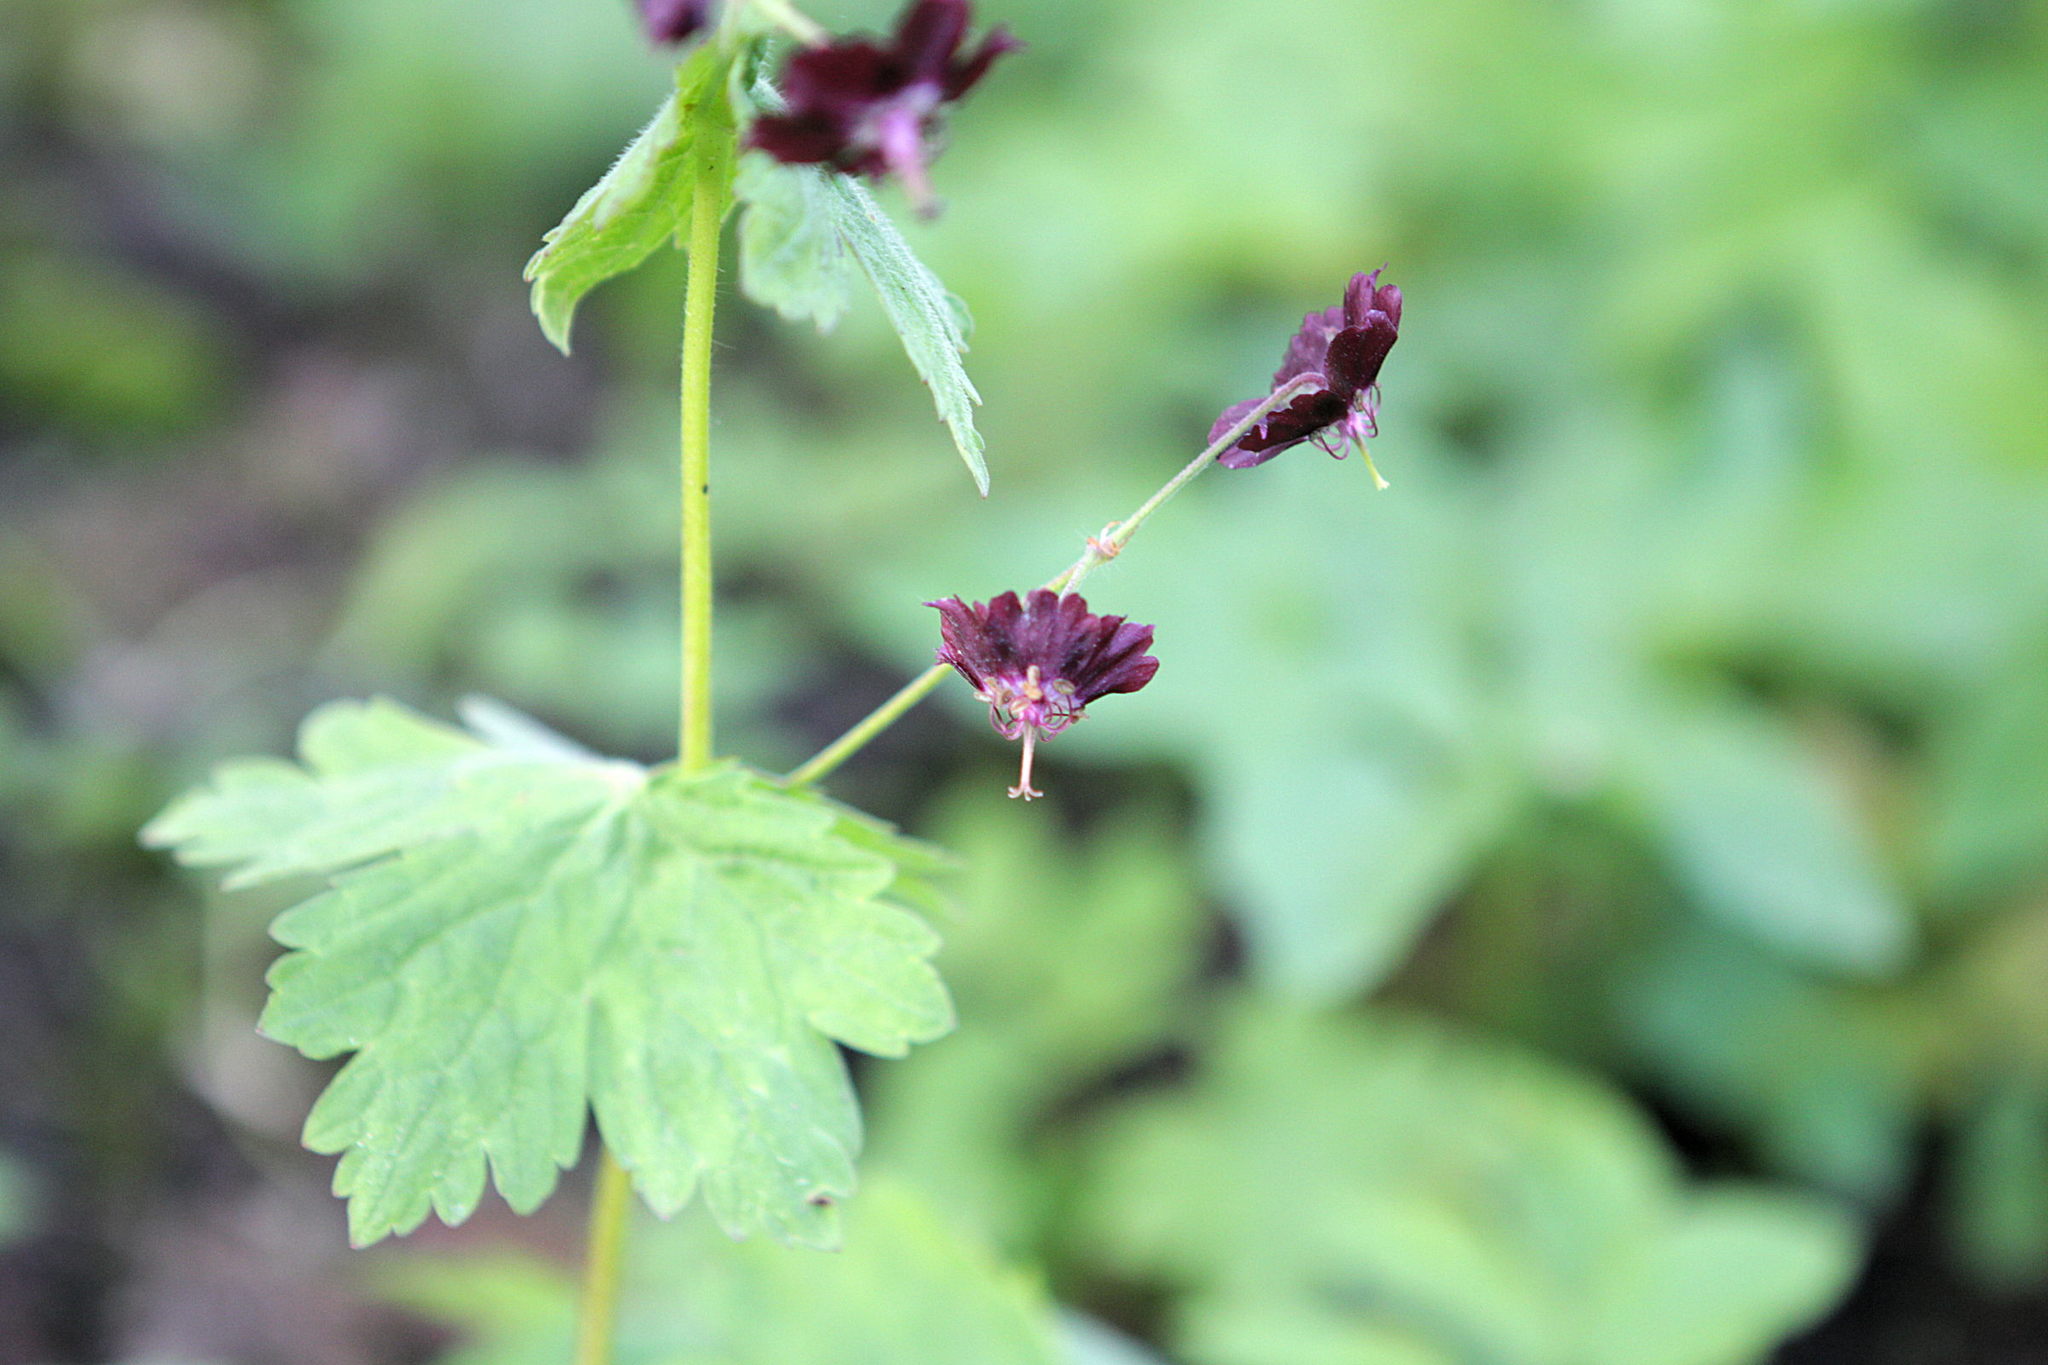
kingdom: Plantae
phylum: Tracheophyta
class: Magnoliopsida
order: Geraniales
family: Geraniaceae
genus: Geranium
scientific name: Geranium phaeum
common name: Dusky crane's-bill
